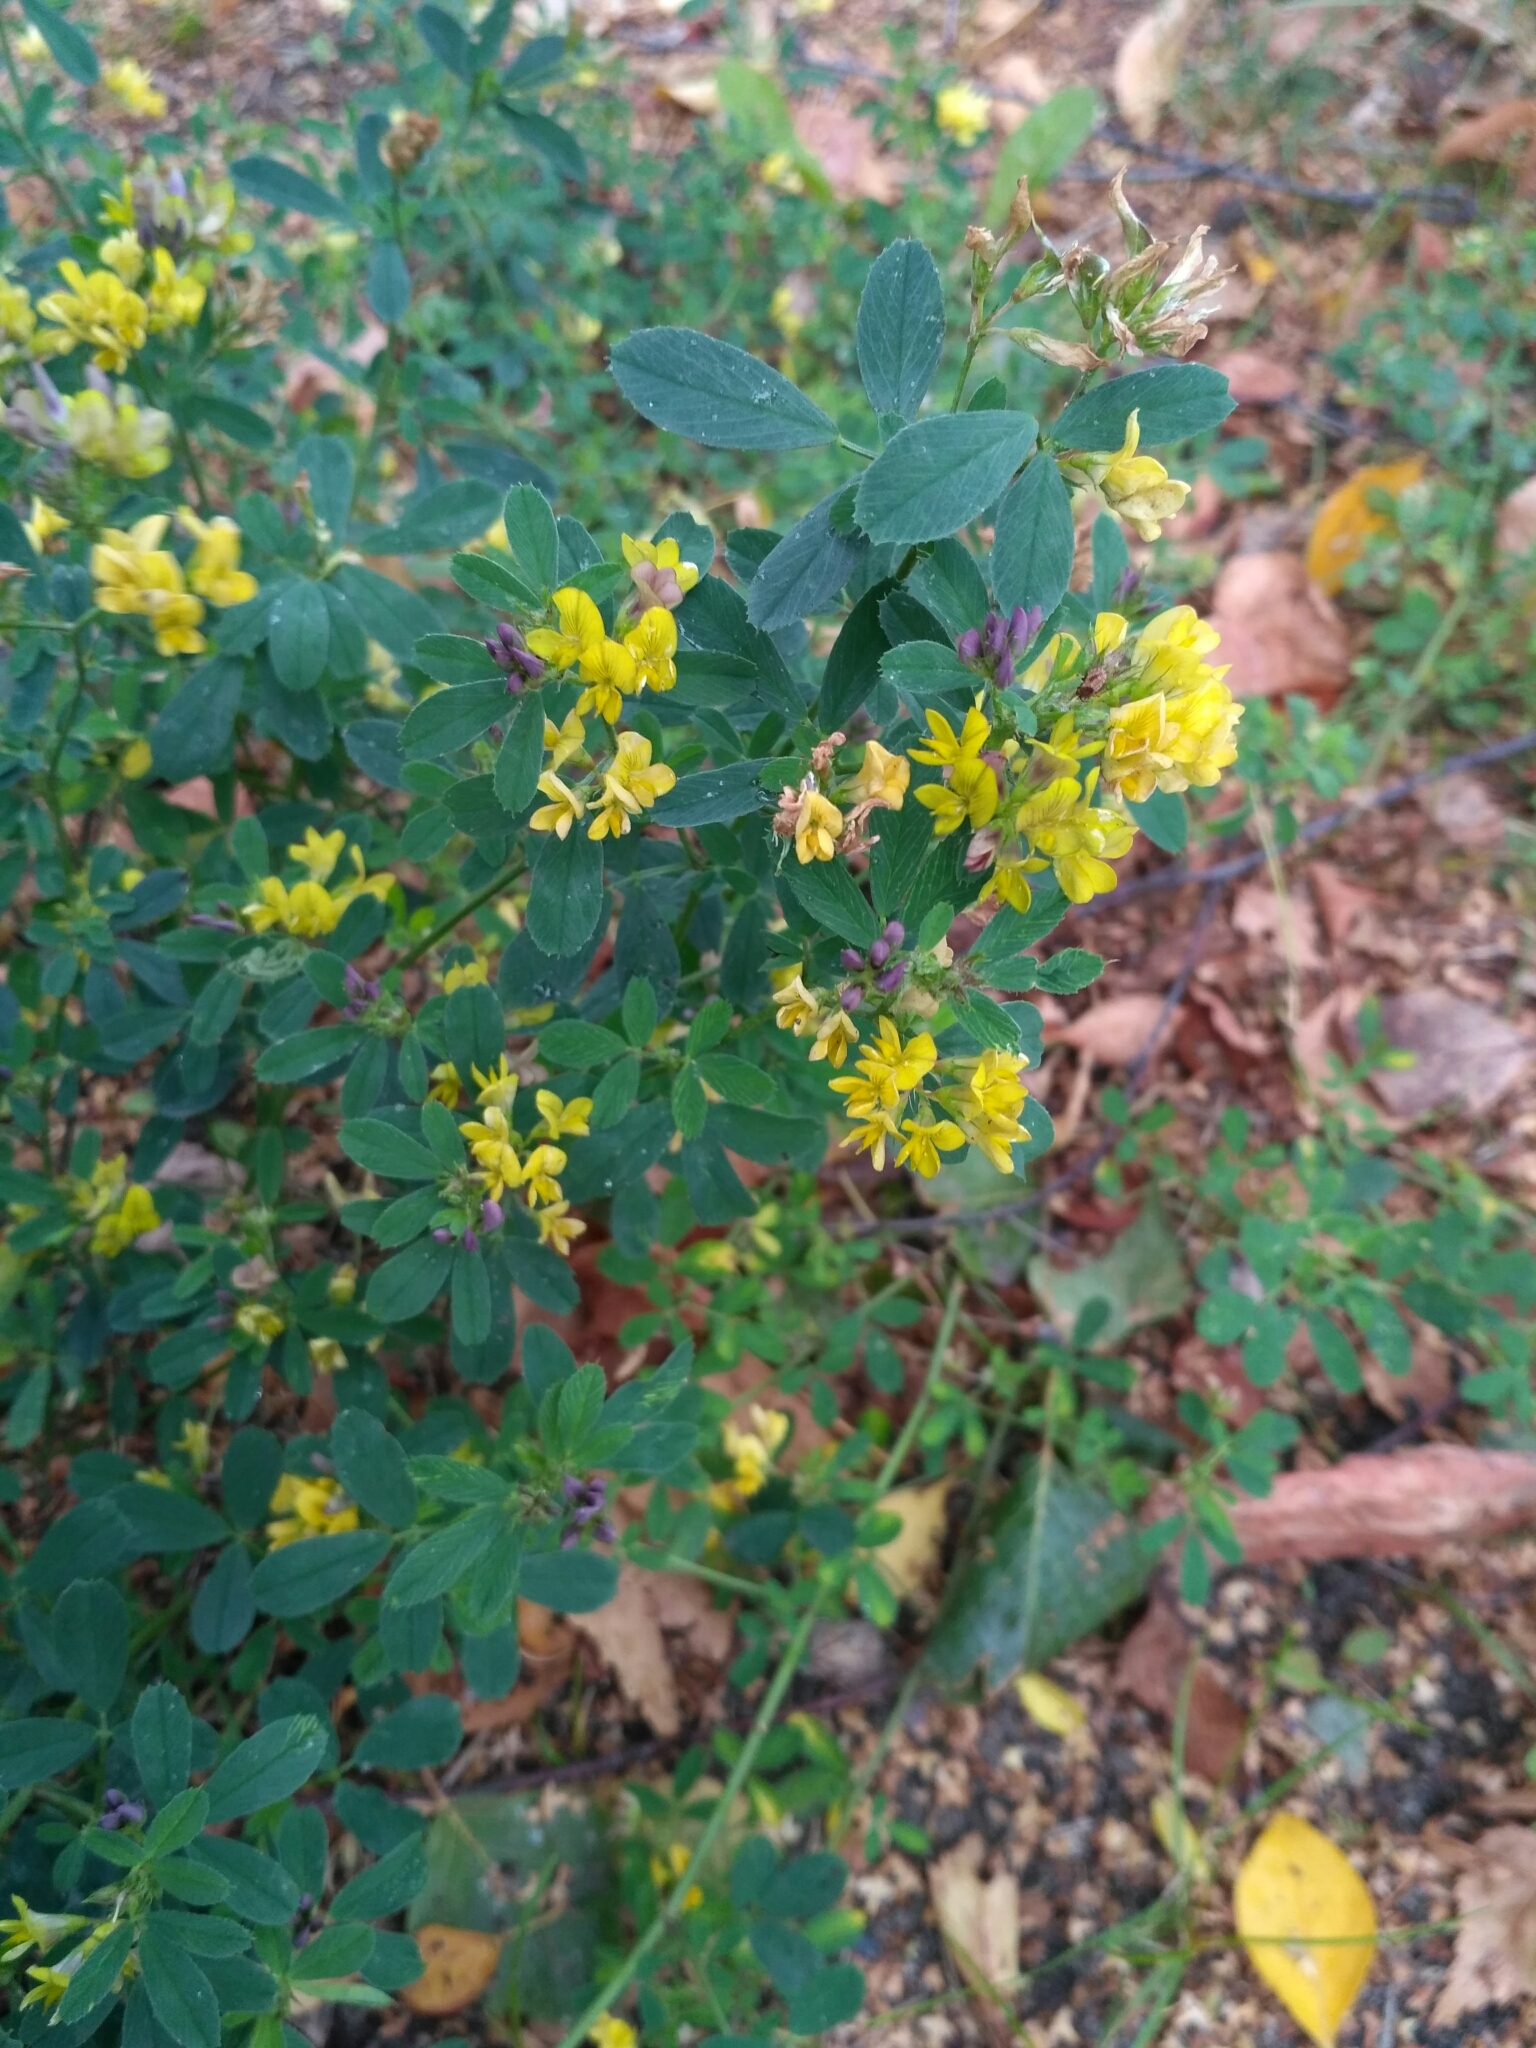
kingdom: Plantae
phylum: Tracheophyta
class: Magnoliopsida
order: Fabales
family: Fabaceae
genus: Medicago
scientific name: Medicago varia
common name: Sand lucerne
